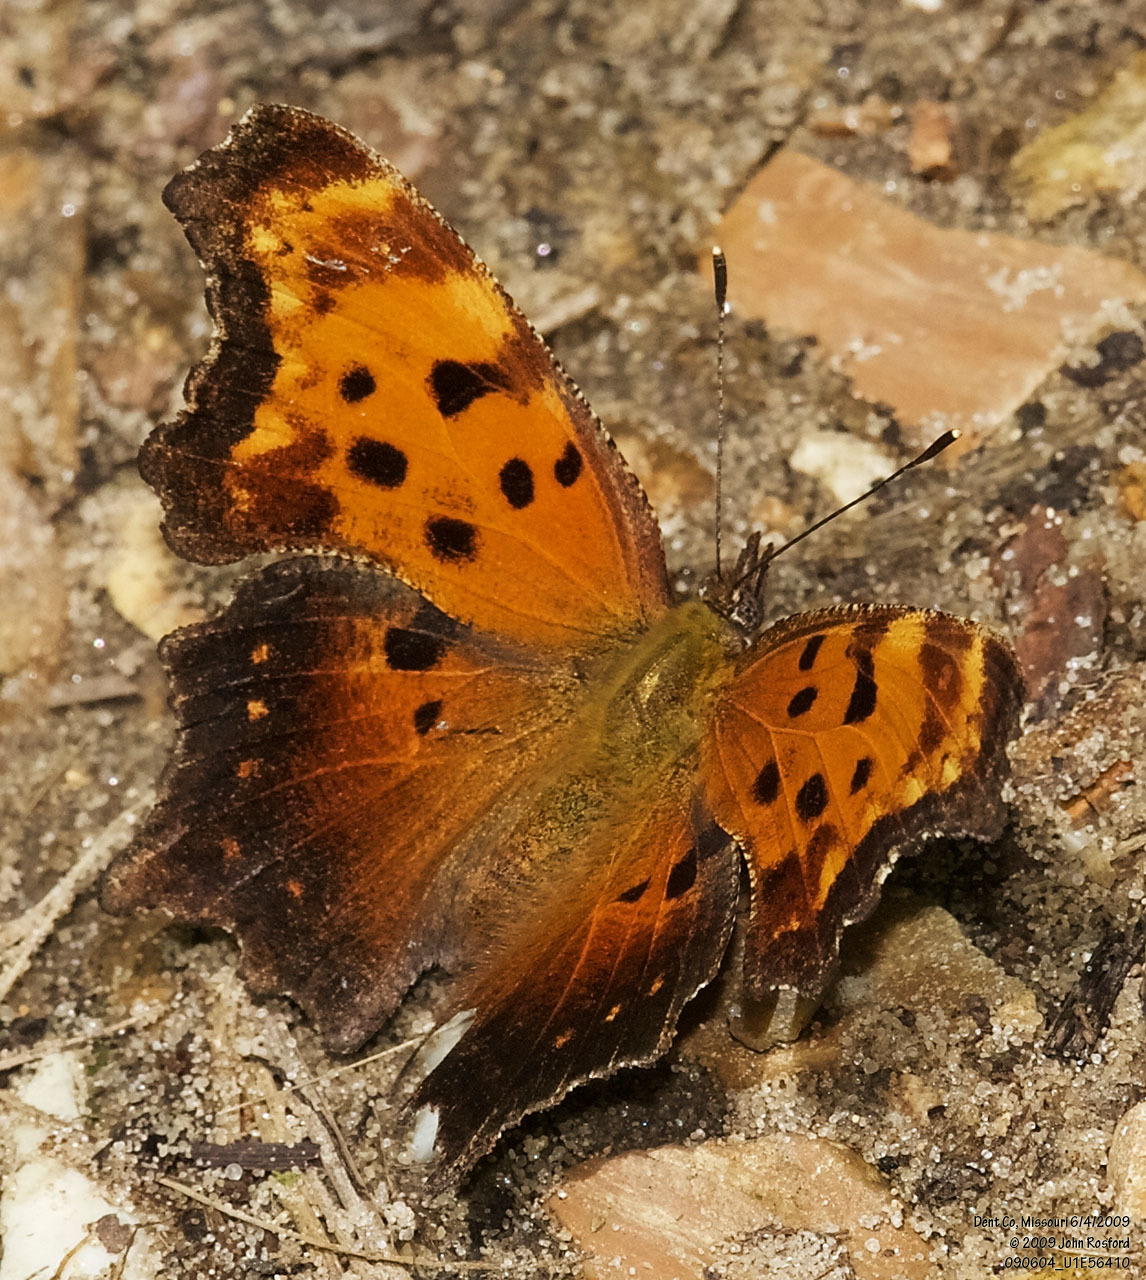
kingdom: Animalia
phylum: Arthropoda
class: Insecta
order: Lepidoptera
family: Nymphalidae
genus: Polygonia
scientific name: Polygonia progne
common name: Gray comma
